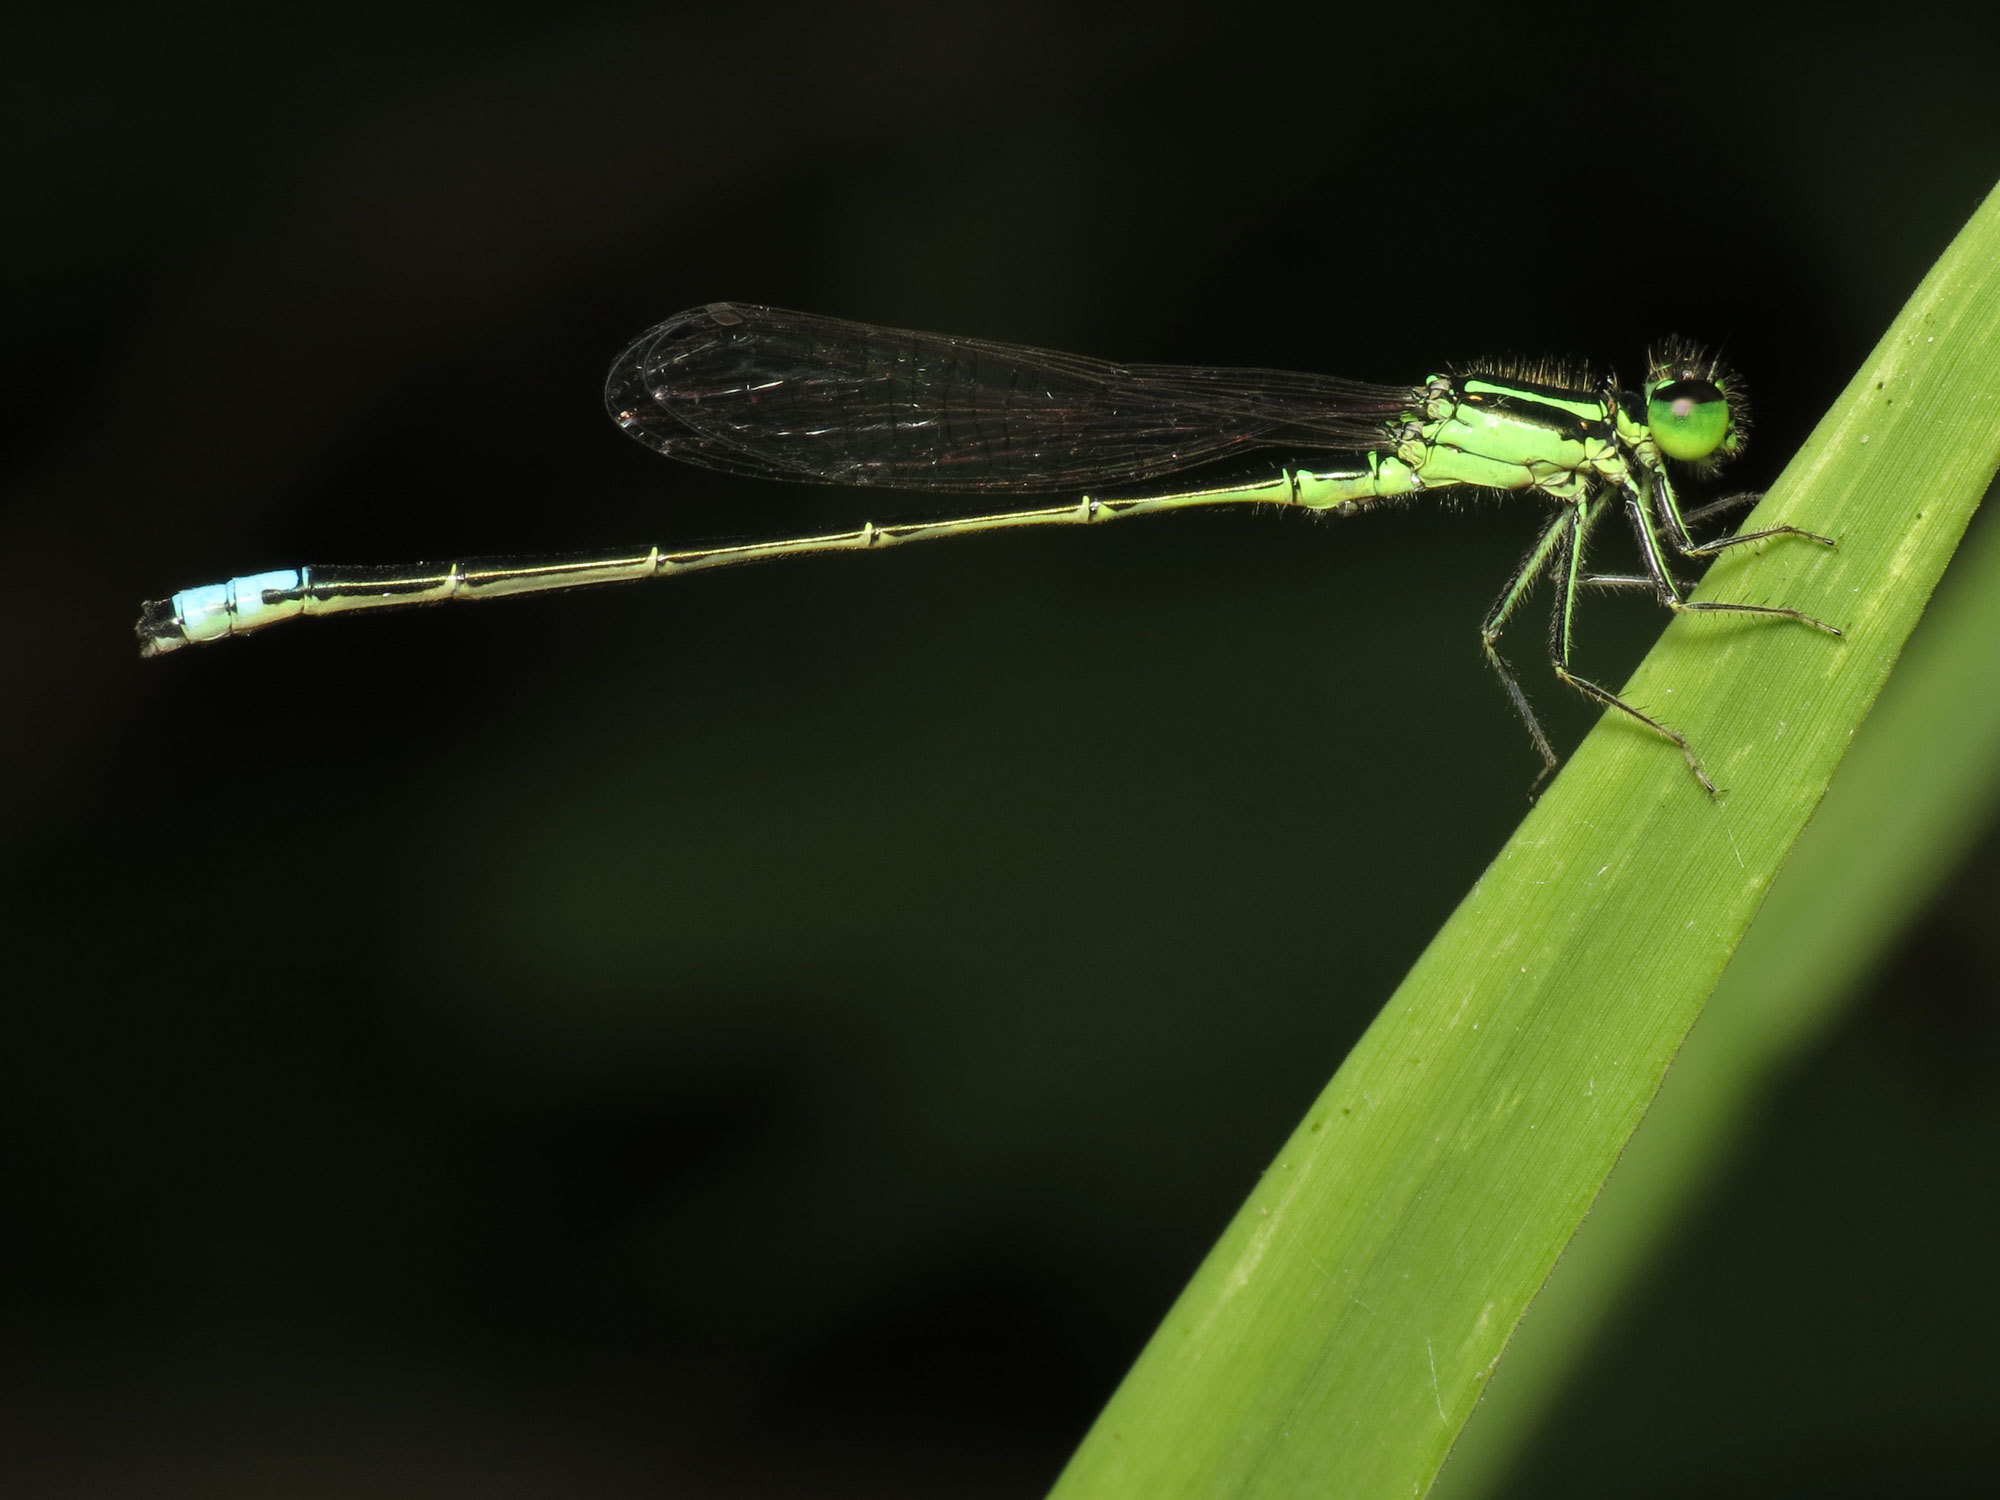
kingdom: Animalia
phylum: Arthropoda
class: Insecta
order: Odonata
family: Coenagrionidae
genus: Ischnura
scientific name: Ischnura verticalis
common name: Eastern forktail
